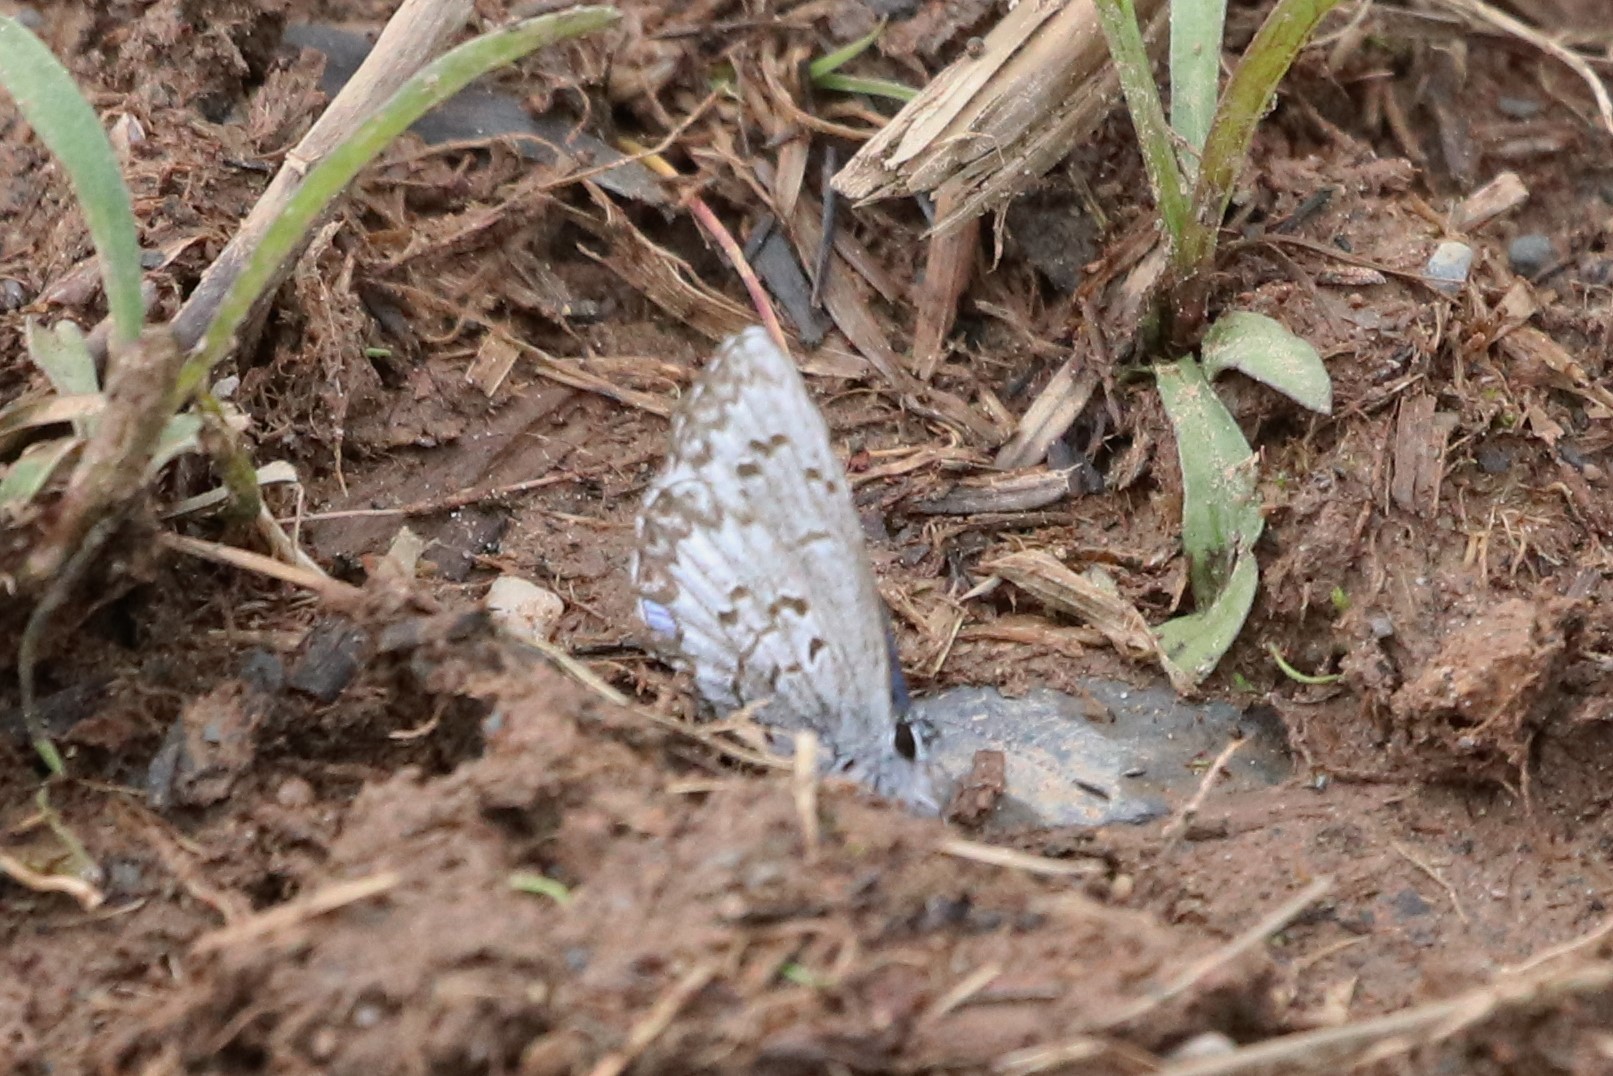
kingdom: Animalia
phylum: Arthropoda
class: Insecta
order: Lepidoptera
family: Lycaenidae
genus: Celastrina
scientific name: Celastrina lucia
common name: Lucia azure
